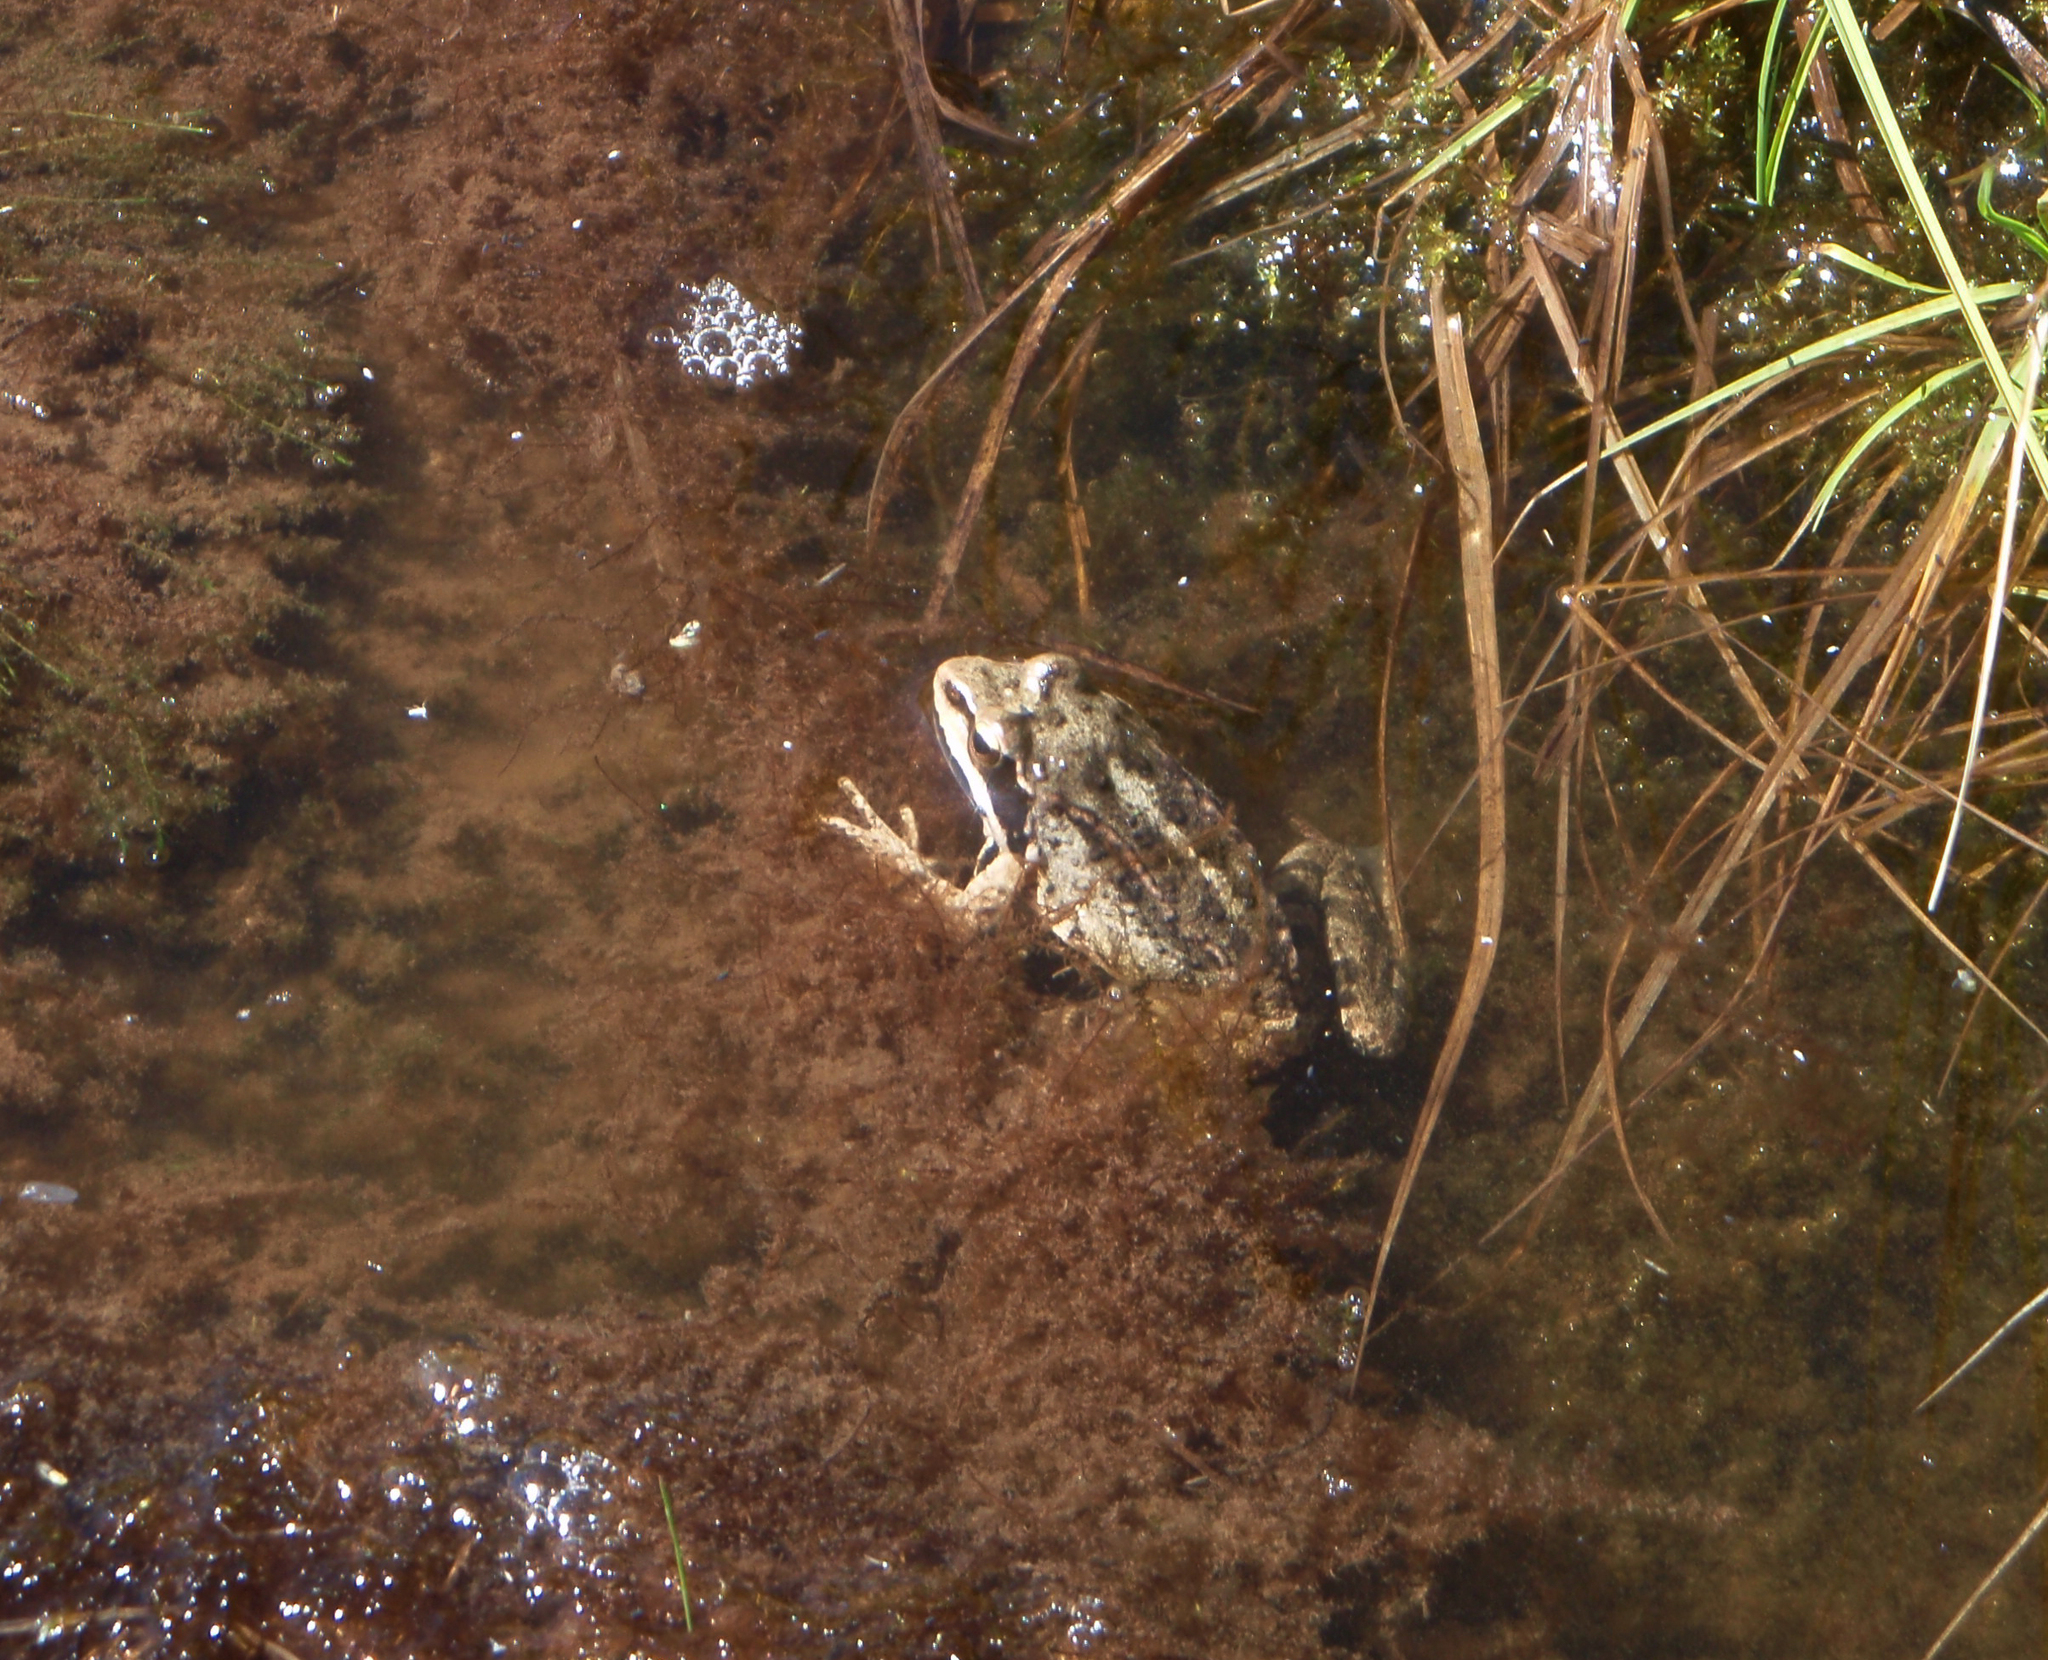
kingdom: Animalia
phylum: Chordata
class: Amphibia
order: Anura
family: Ranidae
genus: Rana
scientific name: Rana macrocnemis
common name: Banded frog
